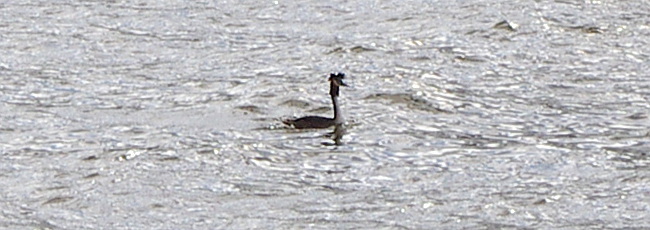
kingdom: Animalia
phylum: Chordata
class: Aves
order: Podicipediformes
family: Podicipedidae
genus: Podiceps
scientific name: Podiceps cristatus
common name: Great crested grebe
